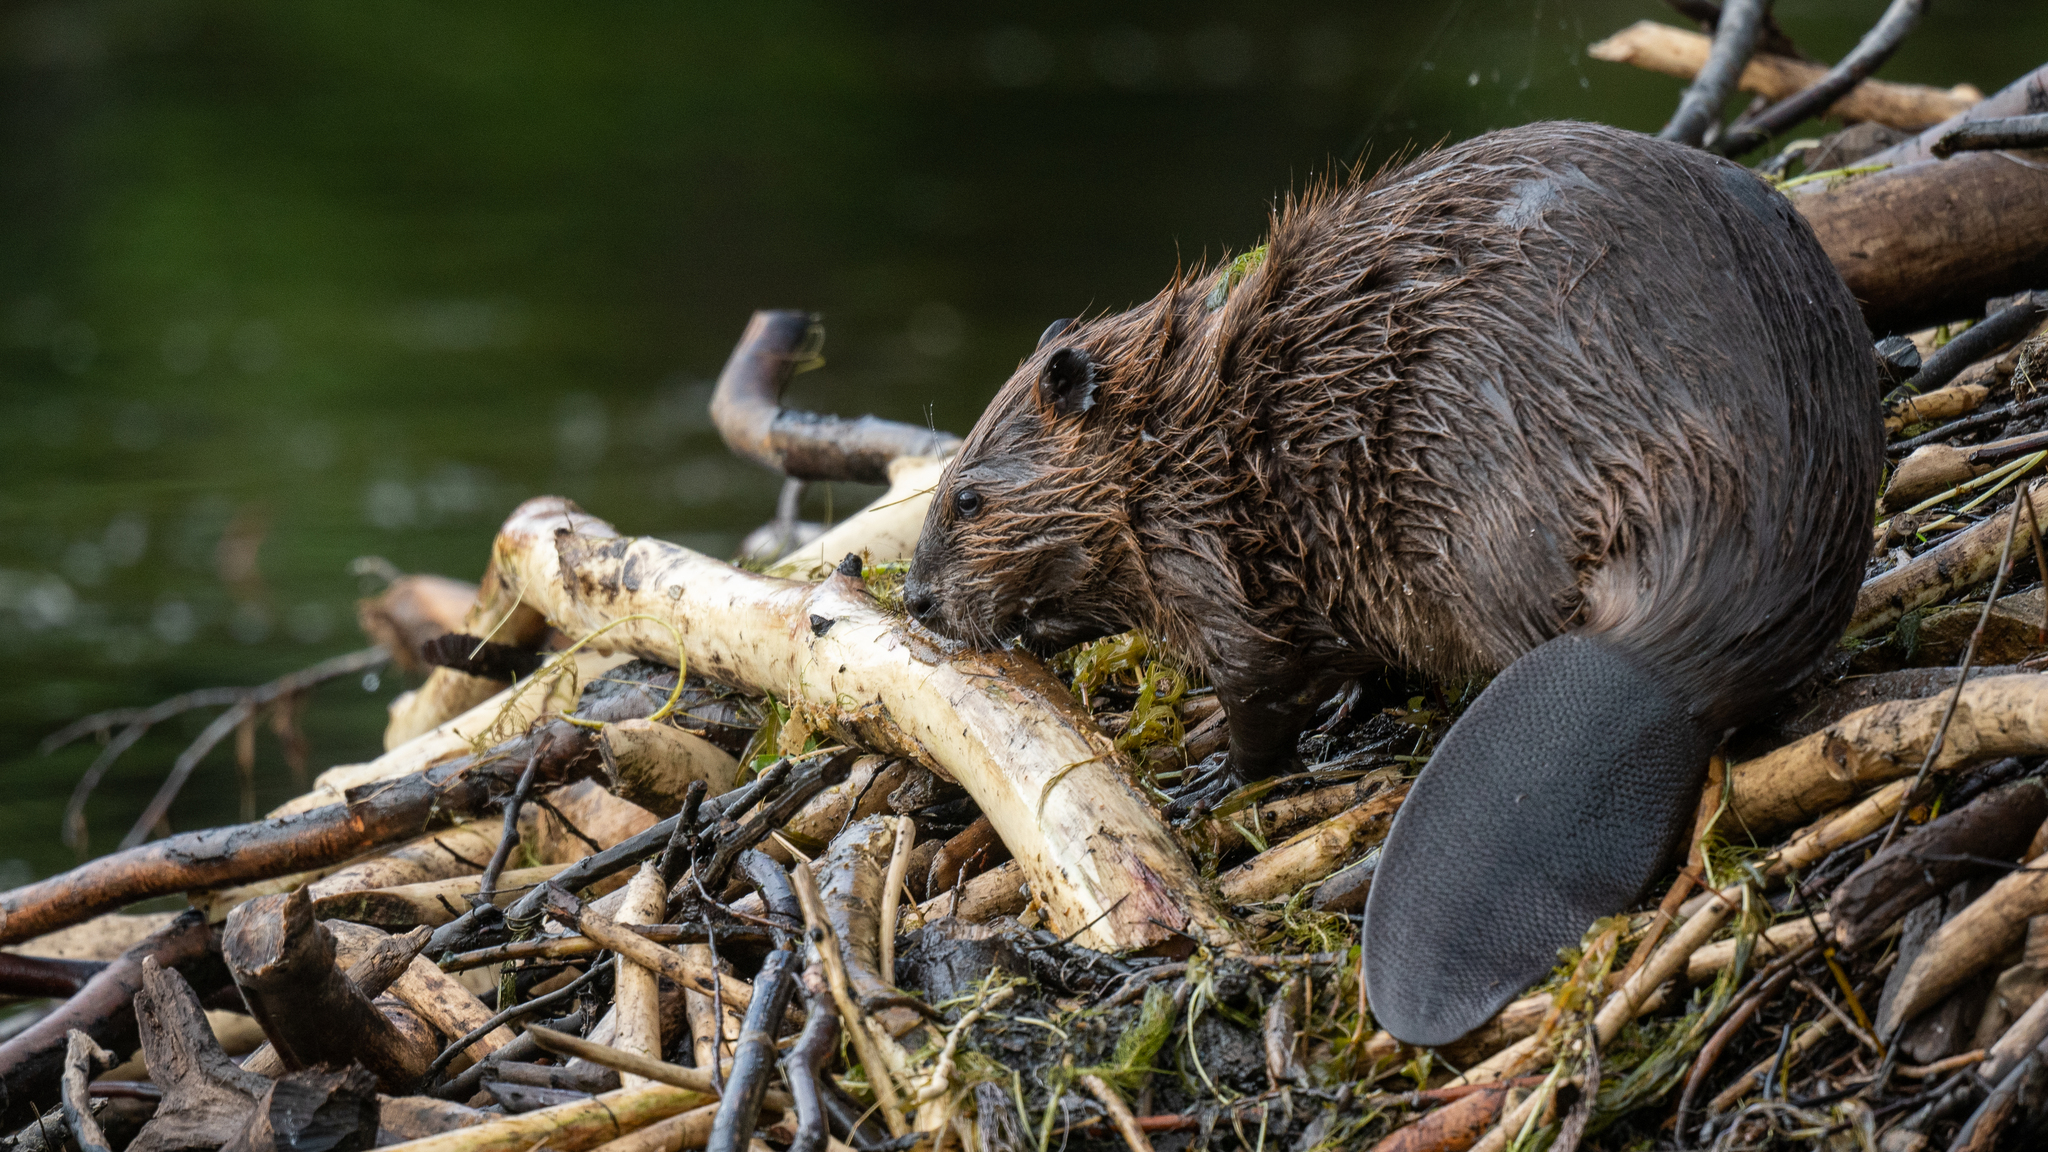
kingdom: Animalia
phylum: Chordata
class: Mammalia
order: Rodentia
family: Castoridae
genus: Castor
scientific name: Castor canadensis
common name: American beaver
